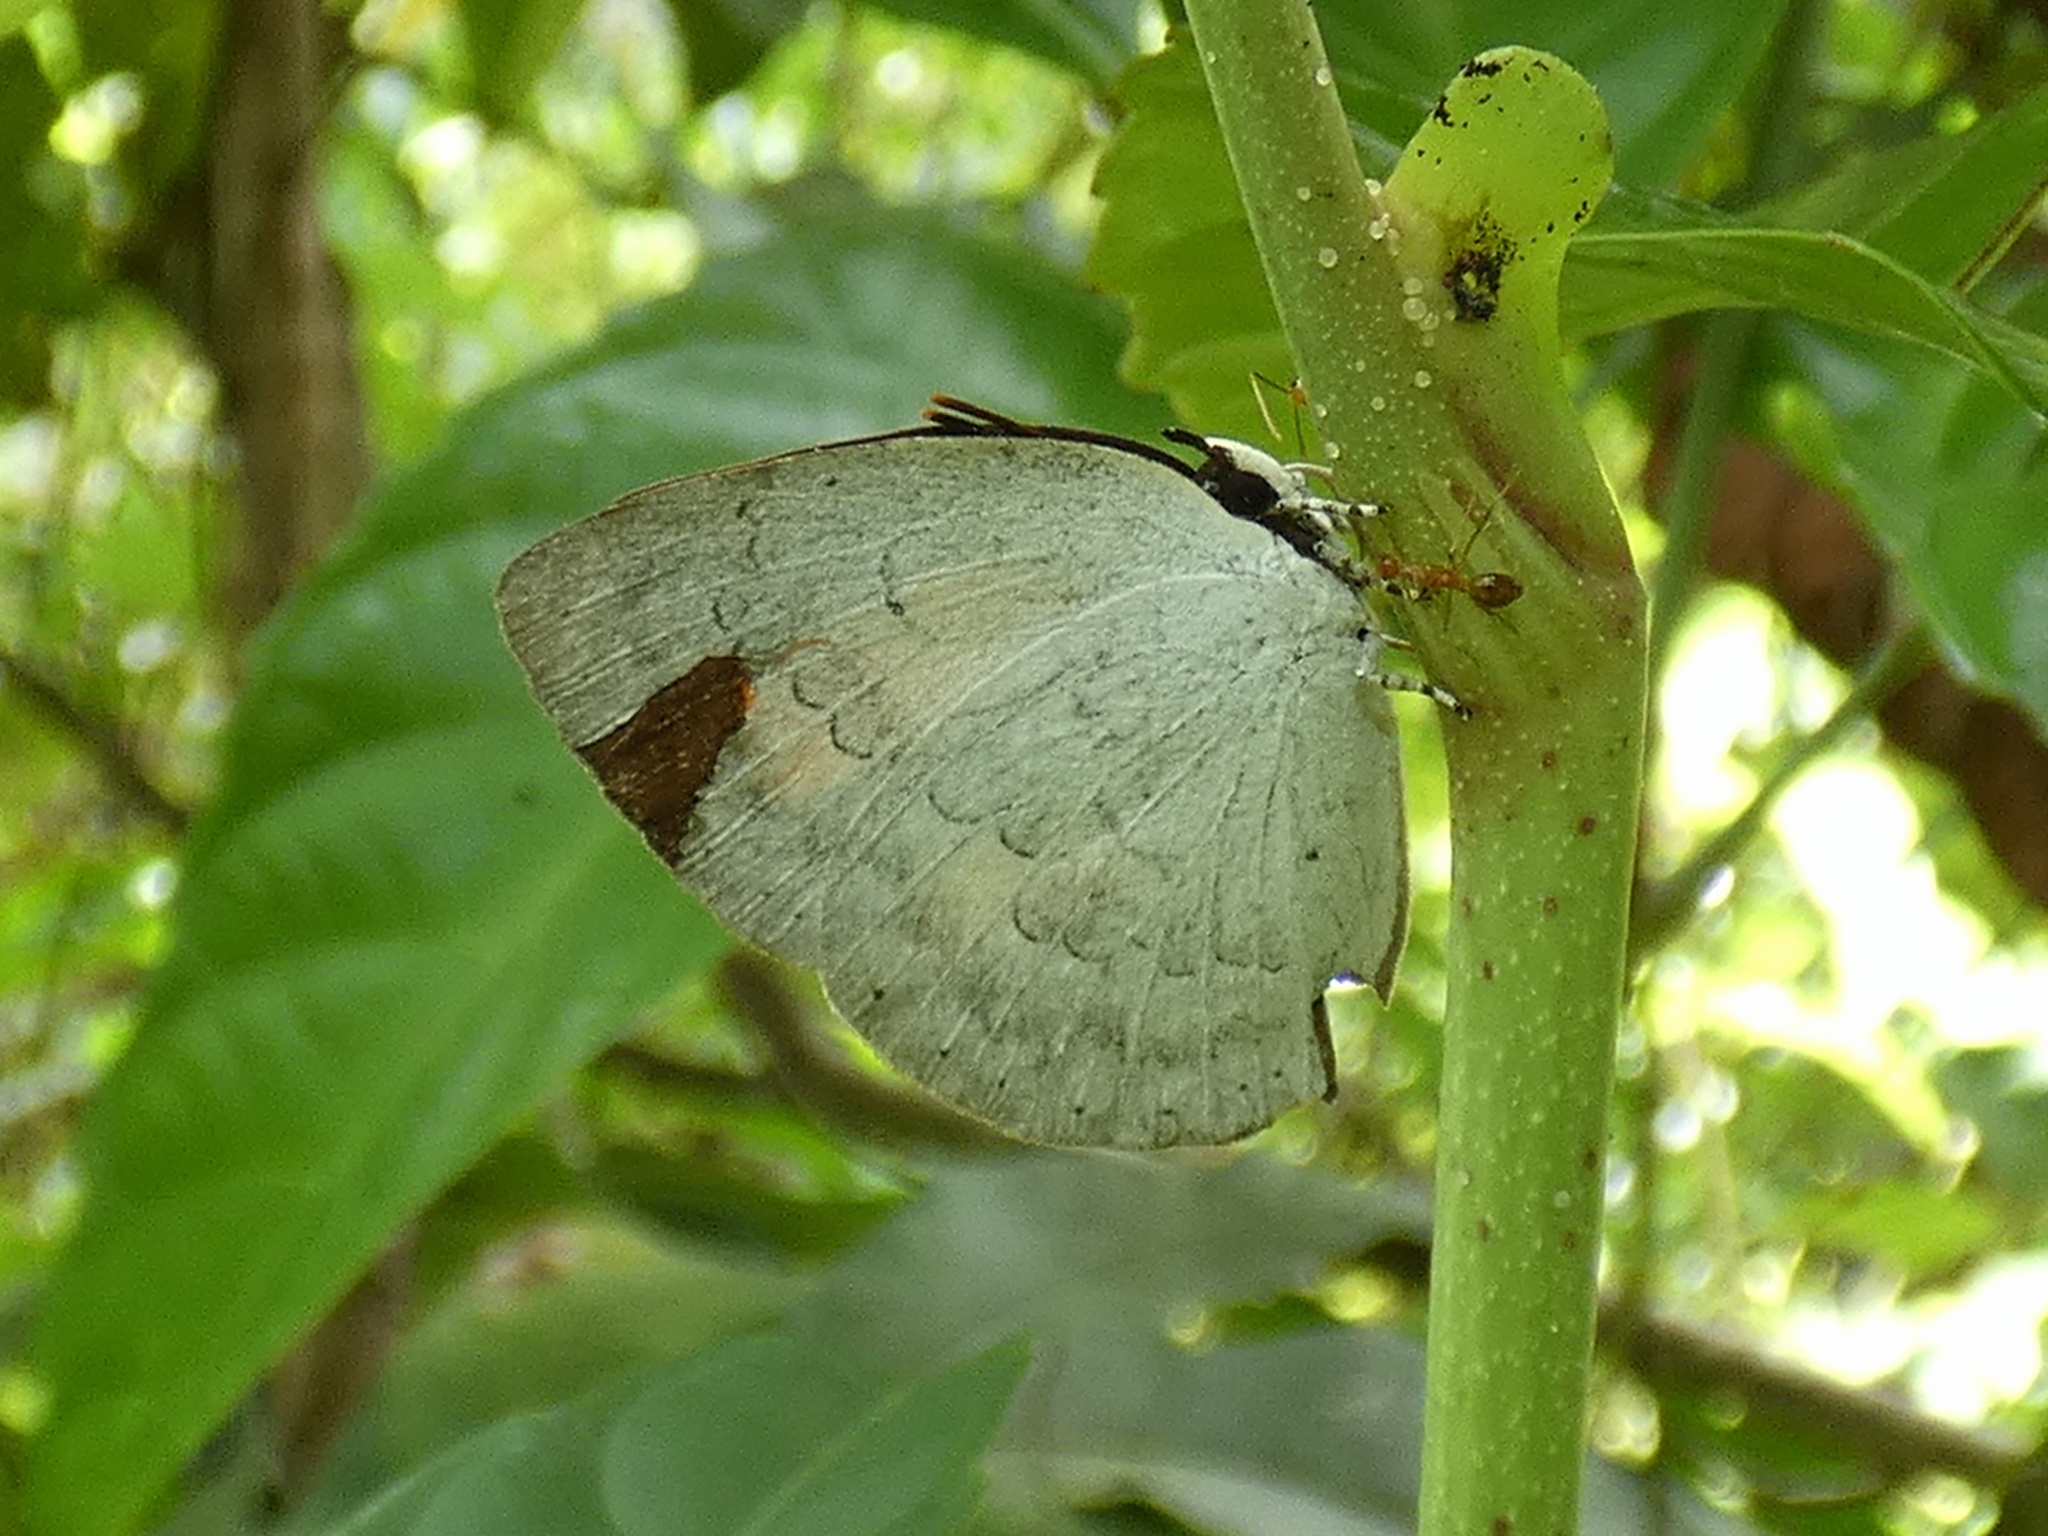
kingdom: Animalia
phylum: Arthropoda
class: Insecta
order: Lepidoptera
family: Lycaenidae
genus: Curetis
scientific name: Curetis tagalica
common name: Southern sunbeam
